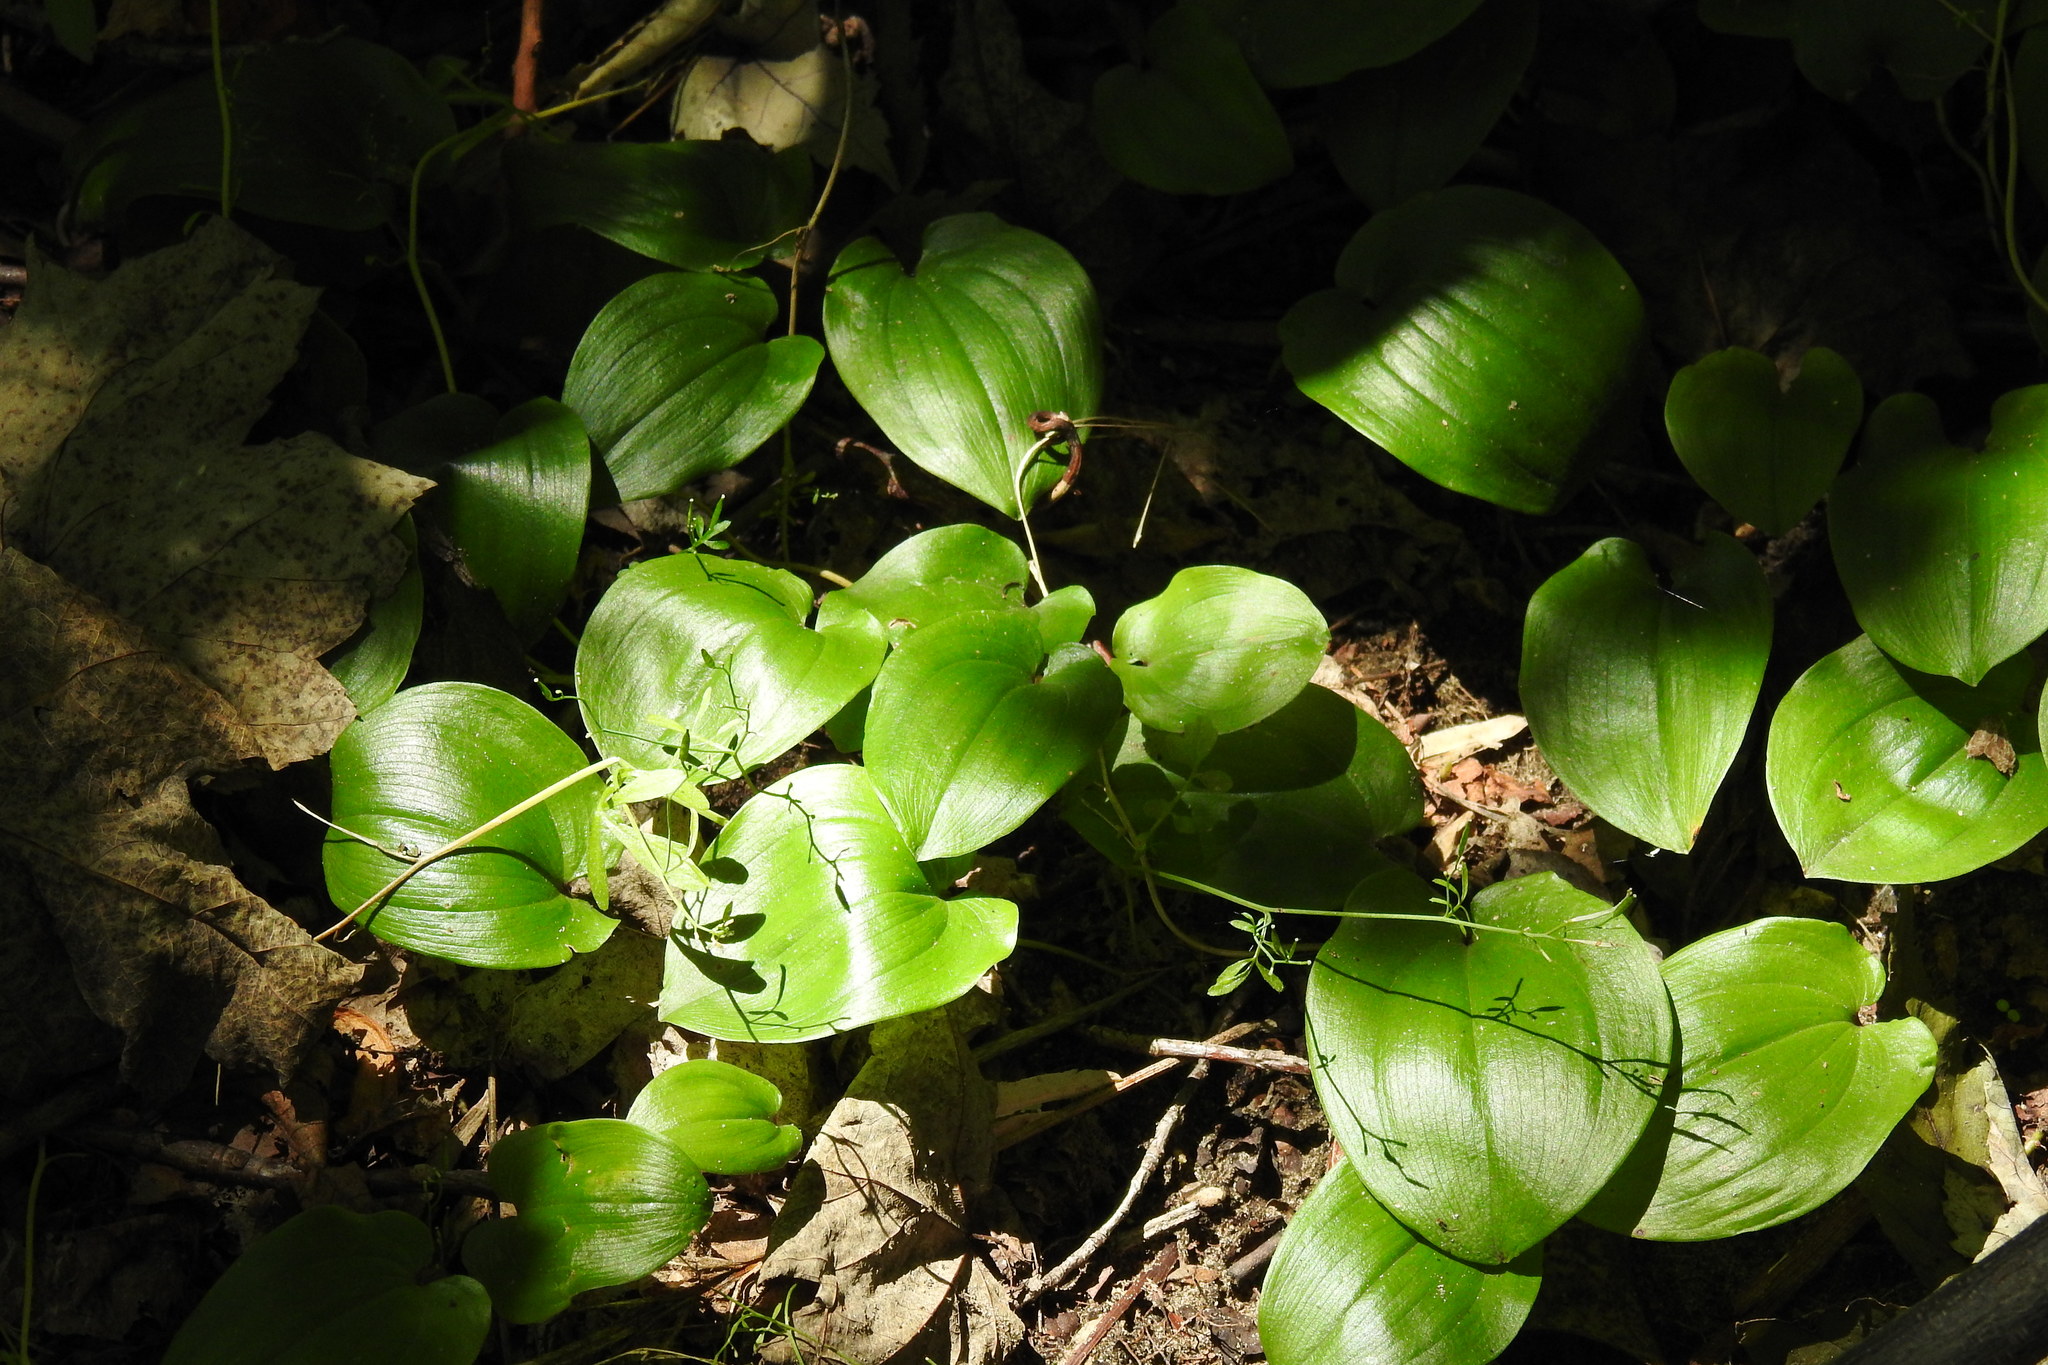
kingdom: Plantae
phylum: Tracheophyta
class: Liliopsida
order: Asparagales
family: Asparagaceae
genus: Maianthemum
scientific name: Maianthemum canadense
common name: False lily-of-the-valley
